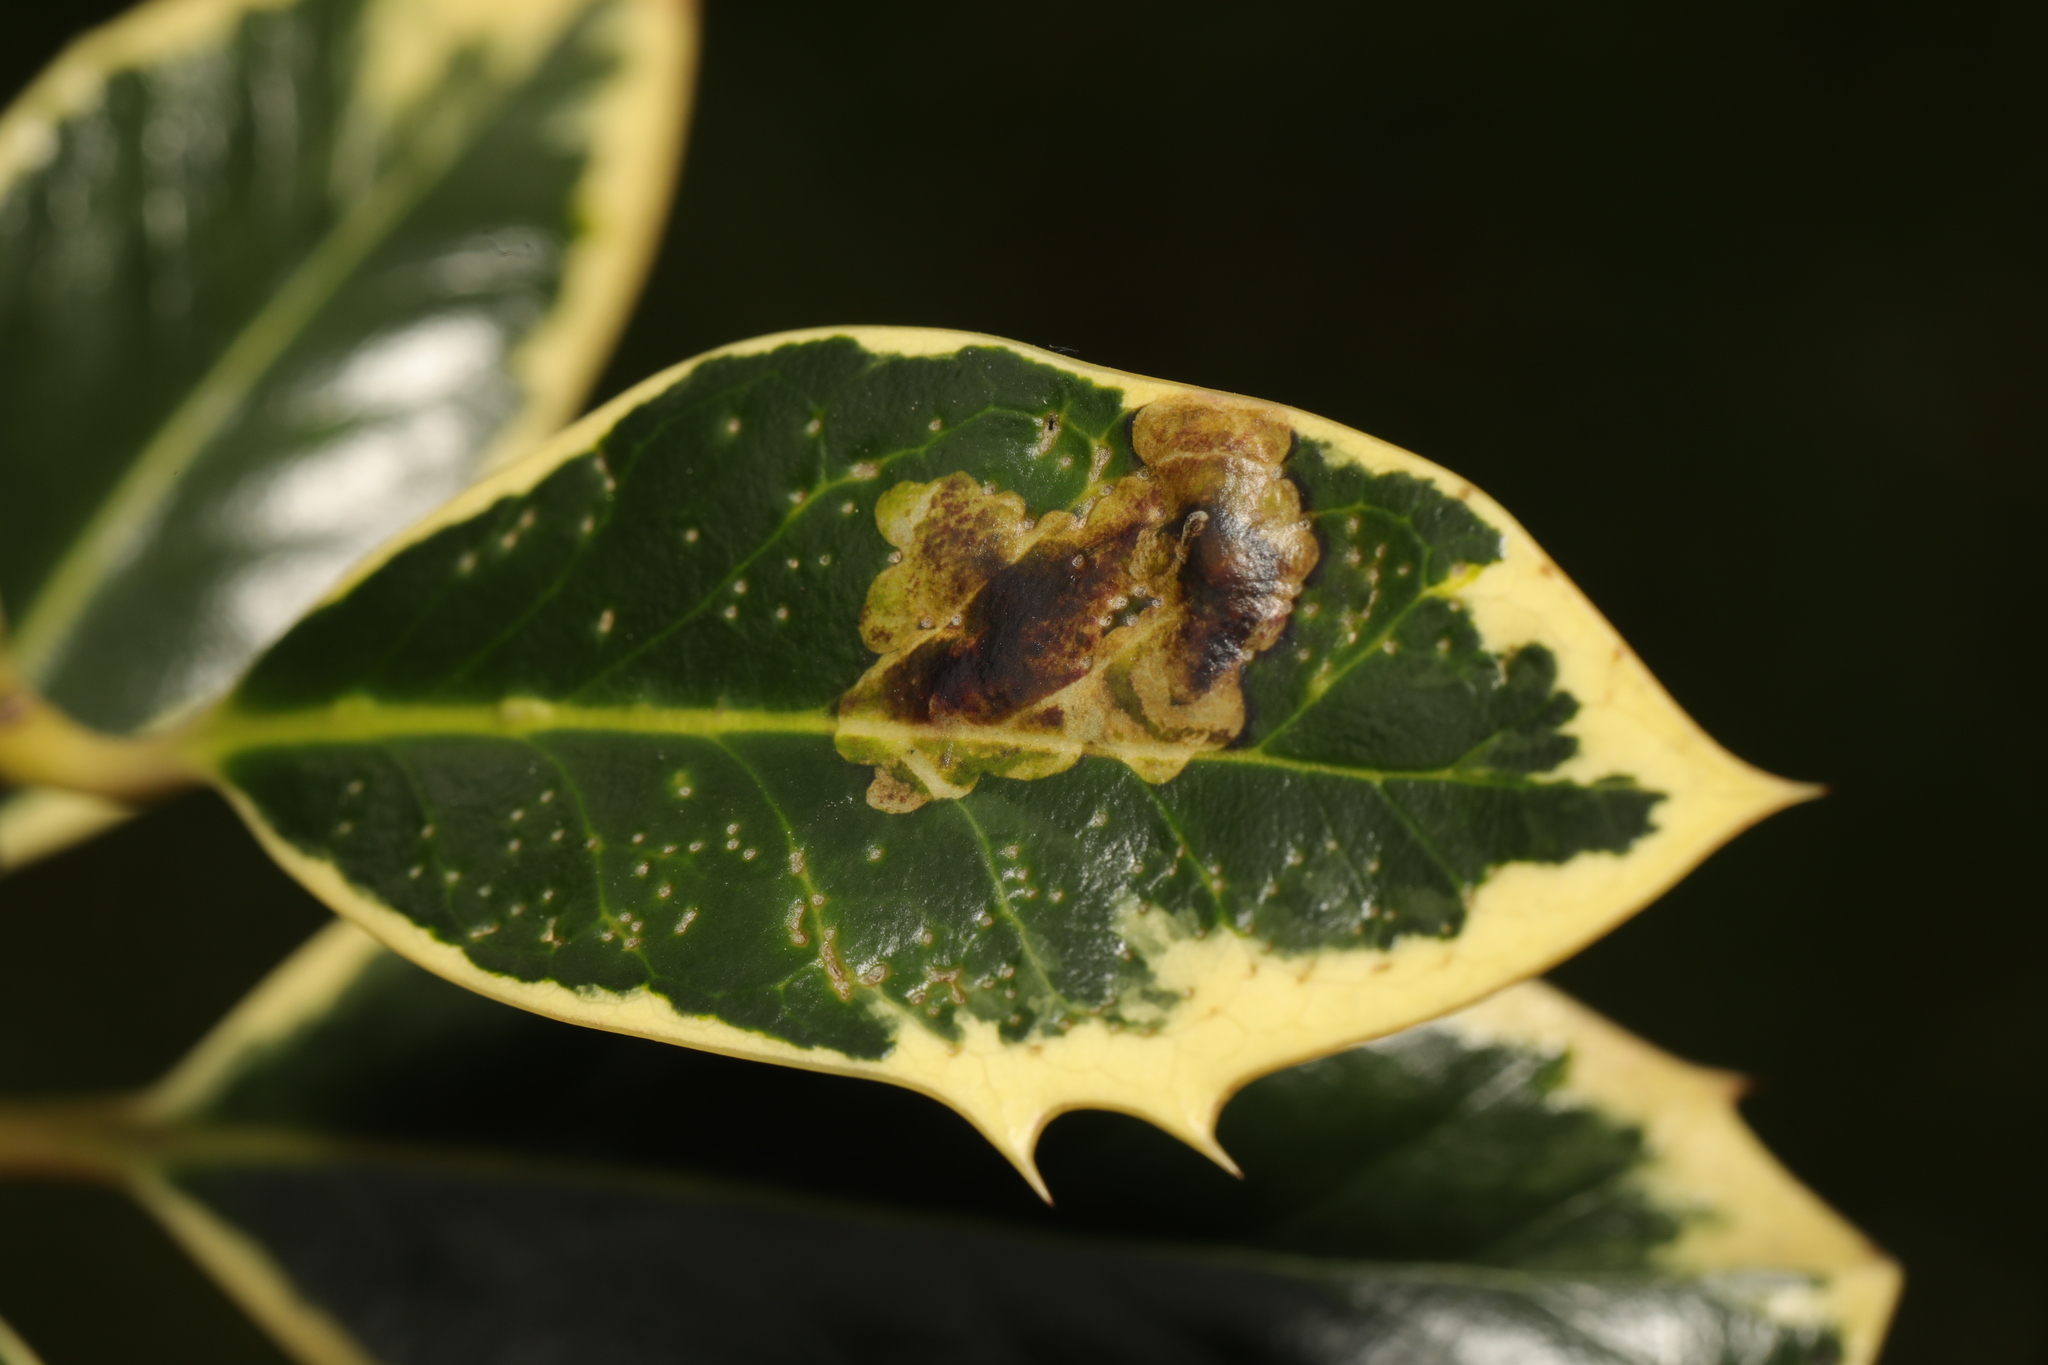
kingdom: Animalia
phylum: Arthropoda
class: Insecta
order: Diptera
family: Agromyzidae
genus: Phytomyza
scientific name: Phytomyza ilicis
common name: Holly leafminer
